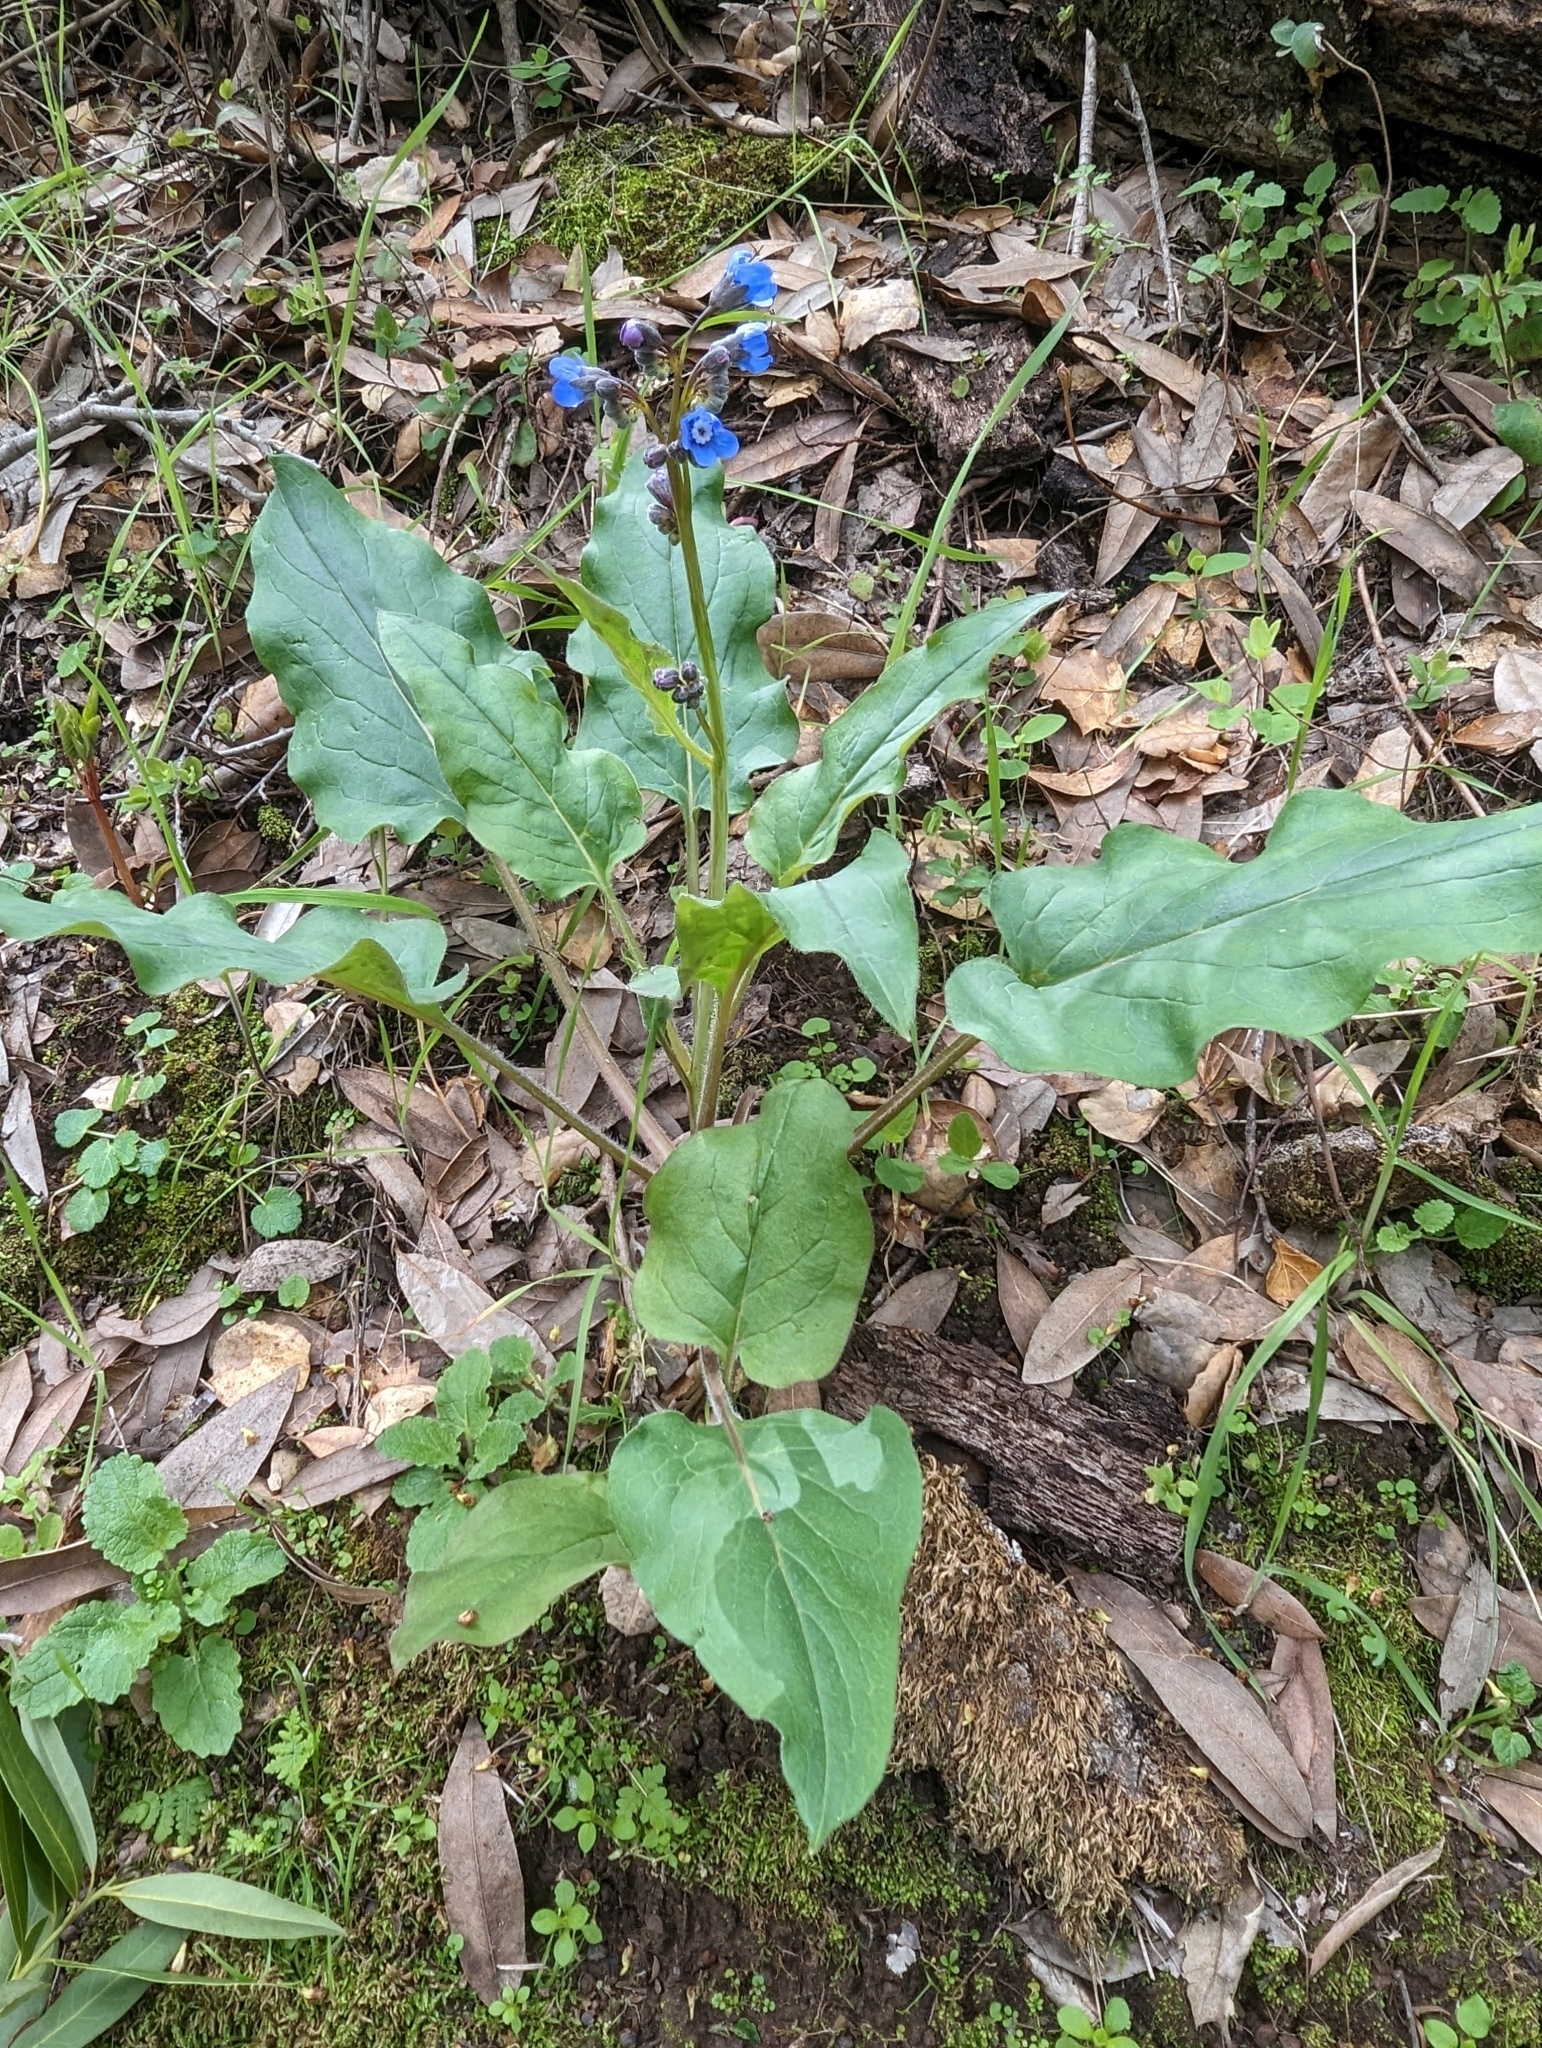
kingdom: Plantae
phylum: Tracheophyta
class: Magnoliopsida
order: Boraginales
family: Boraginaceae
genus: Adelinia
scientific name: Adelinia grande
